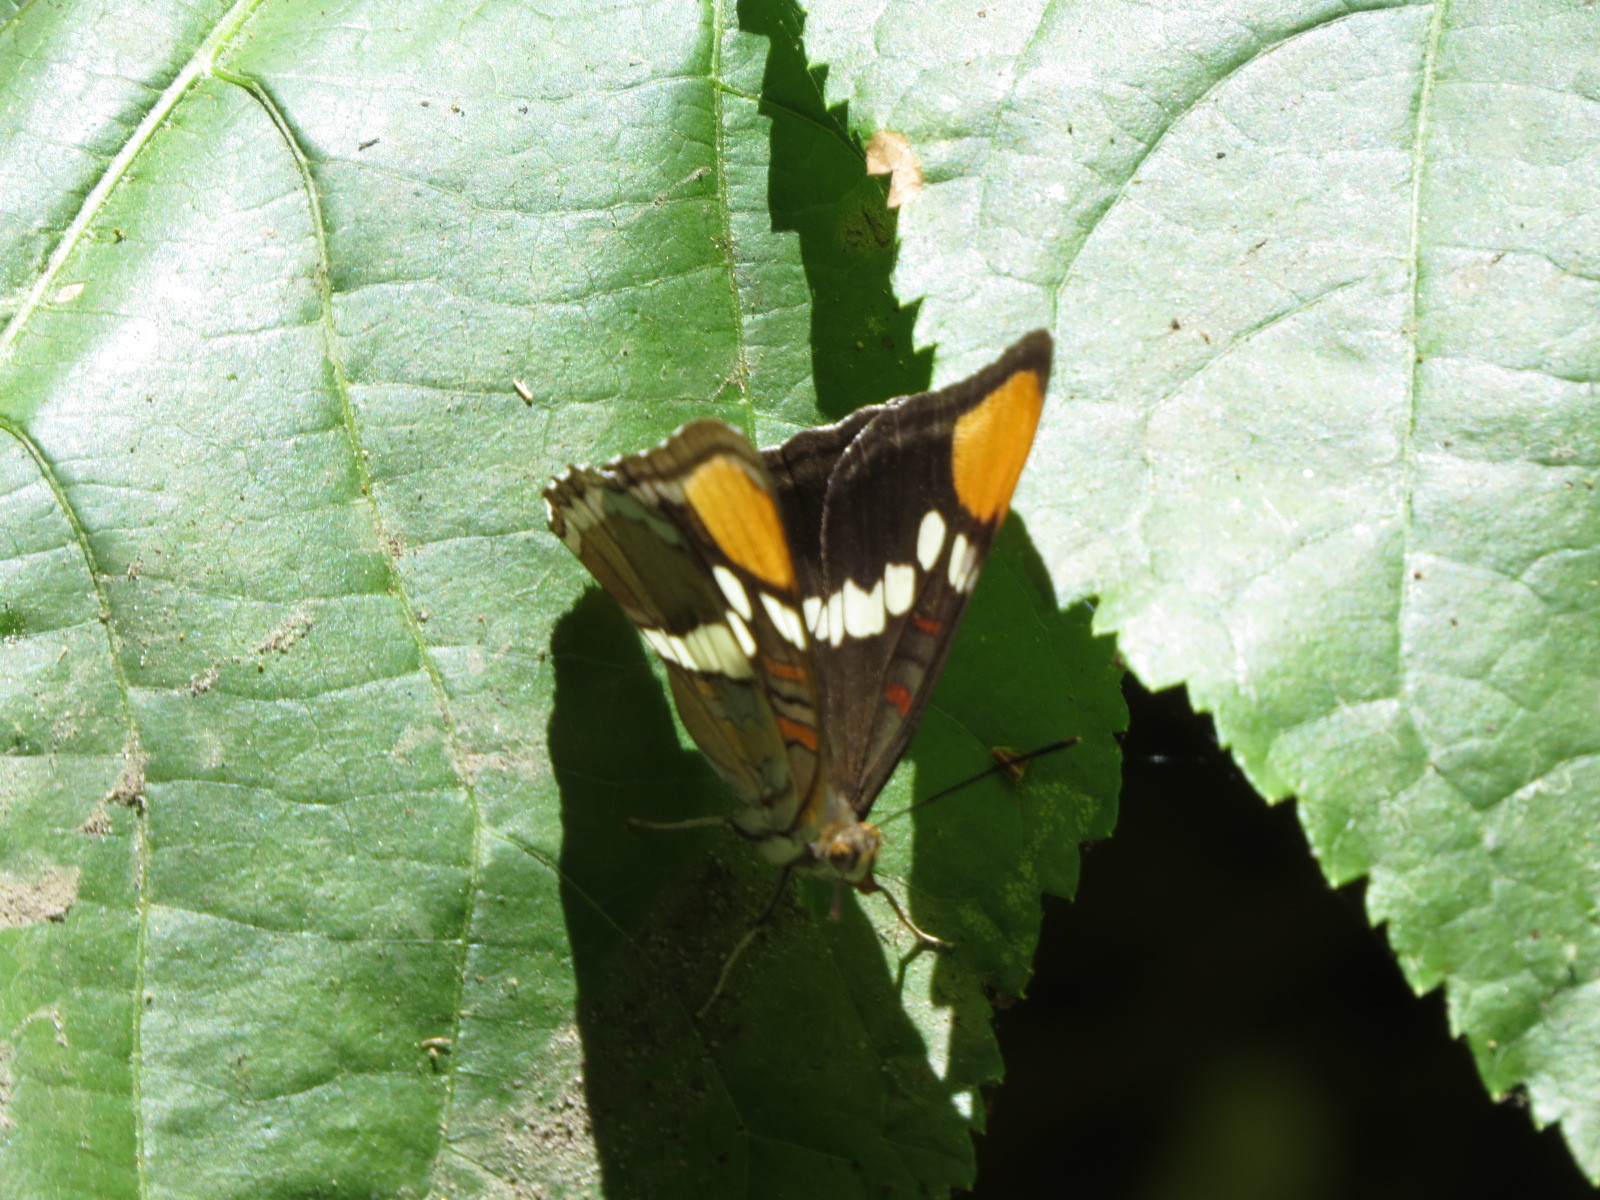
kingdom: Animalia
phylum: Arthropoda
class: Insecta
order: Lepidoptera
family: Nymphalidae
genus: Limenitis
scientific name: Limenitis bredowii
